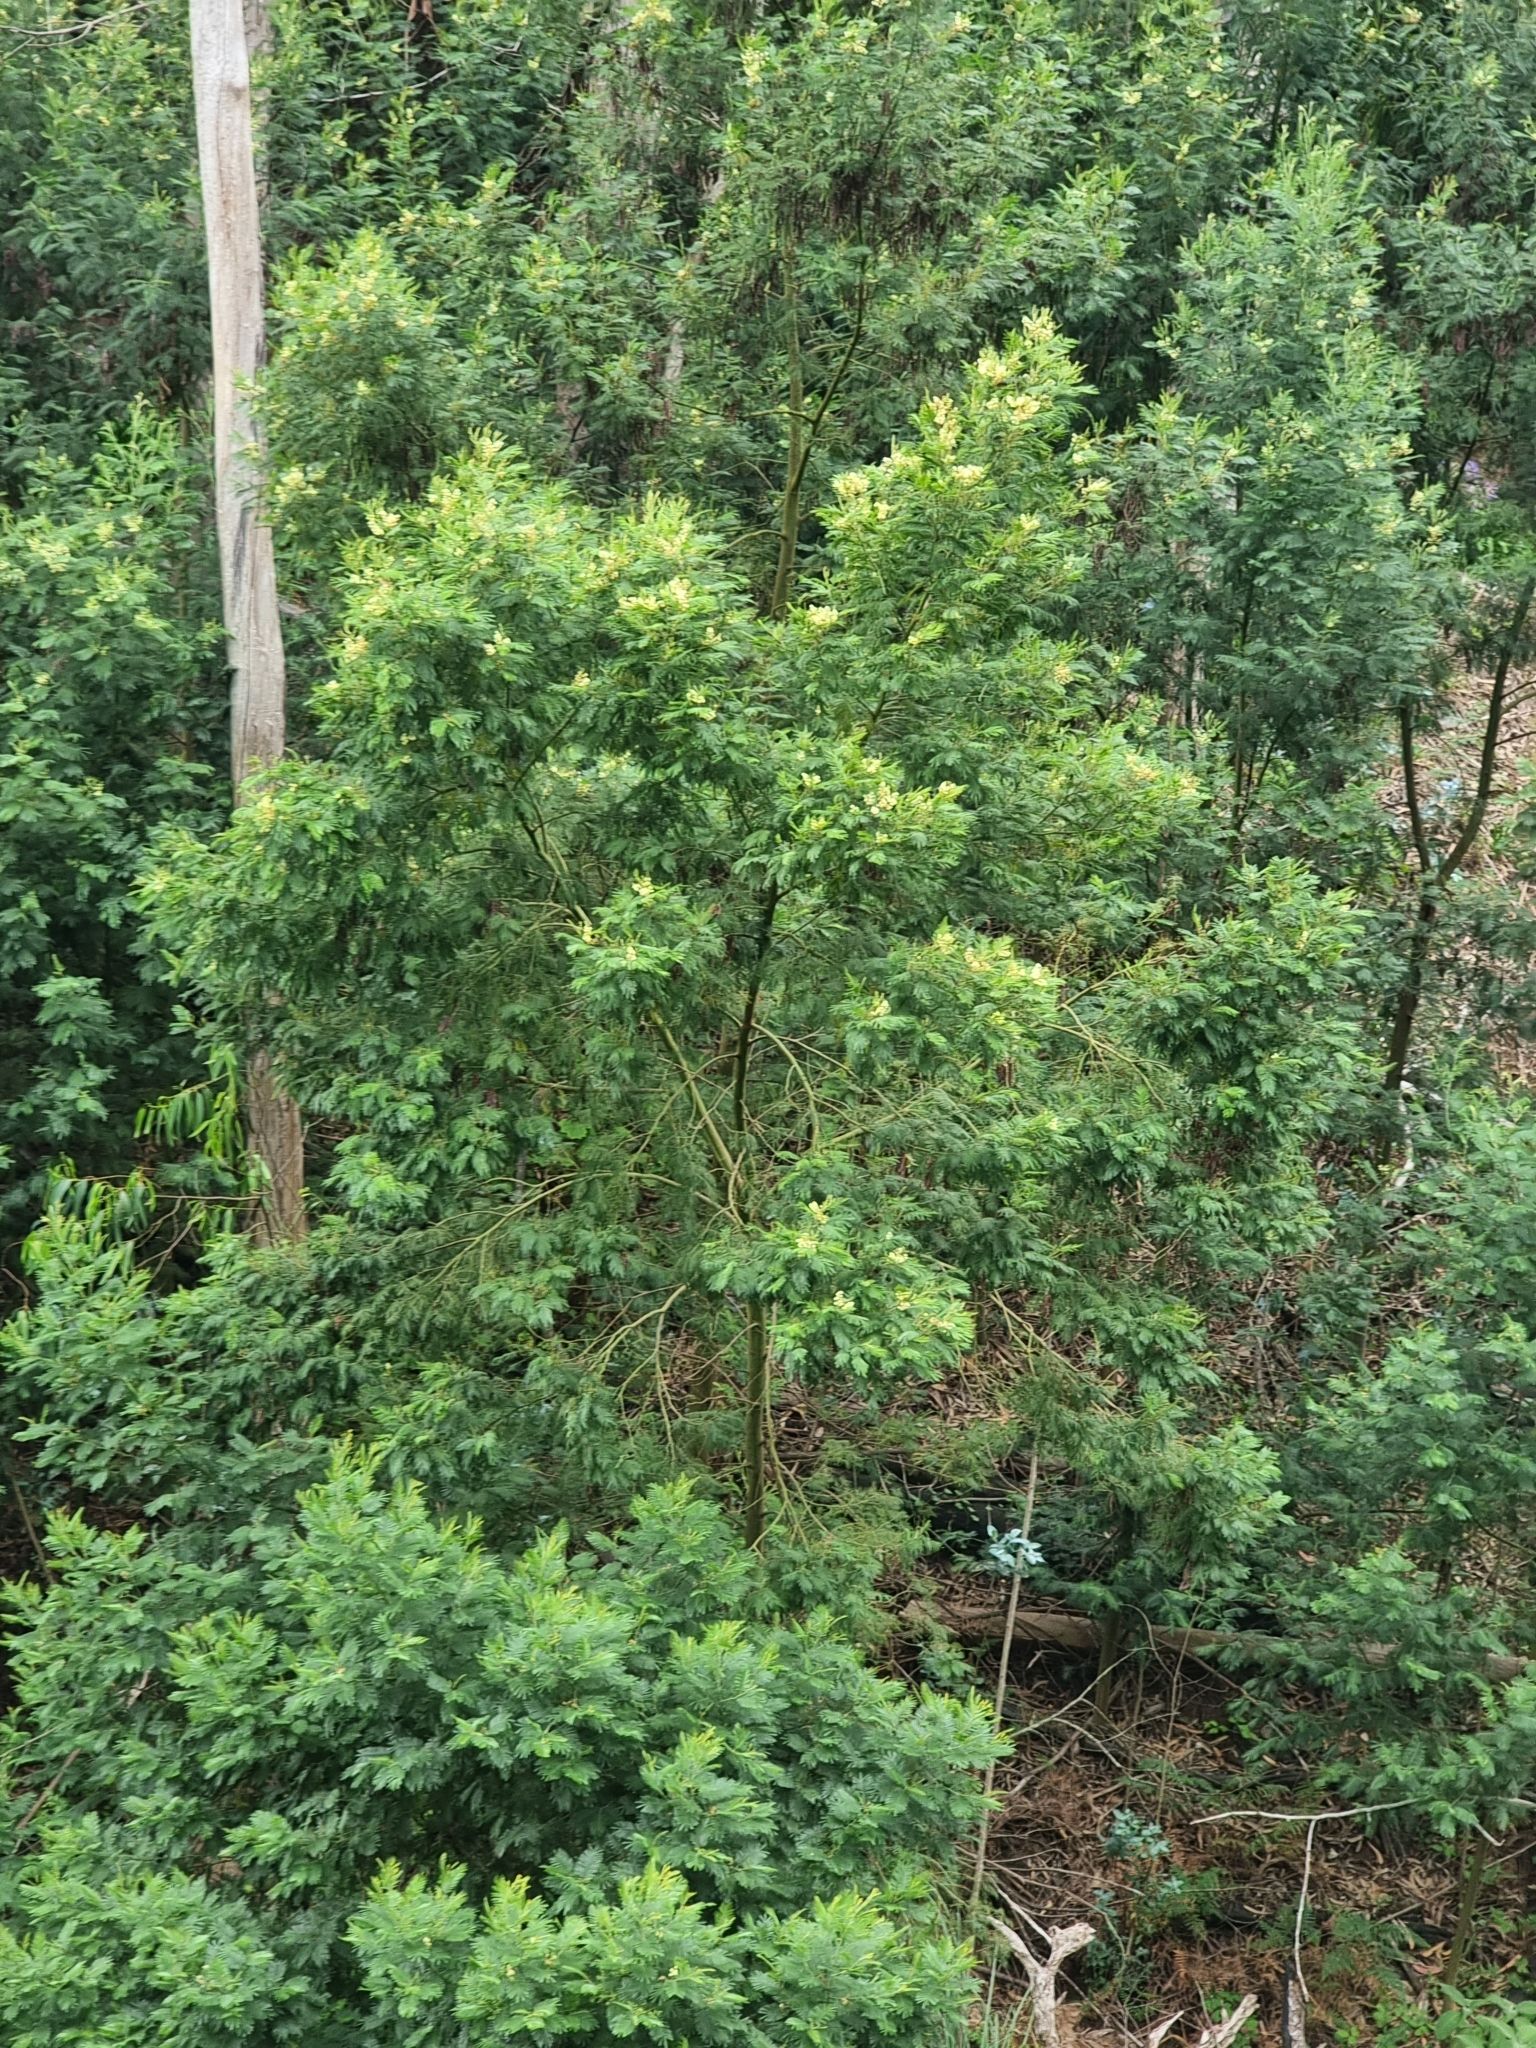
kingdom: Plantae
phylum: Tracheophyta
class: Magnoliopsida
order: Fabales
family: Fabaceae
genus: Acacia
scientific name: Acacia mearnsii
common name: Black wattle
